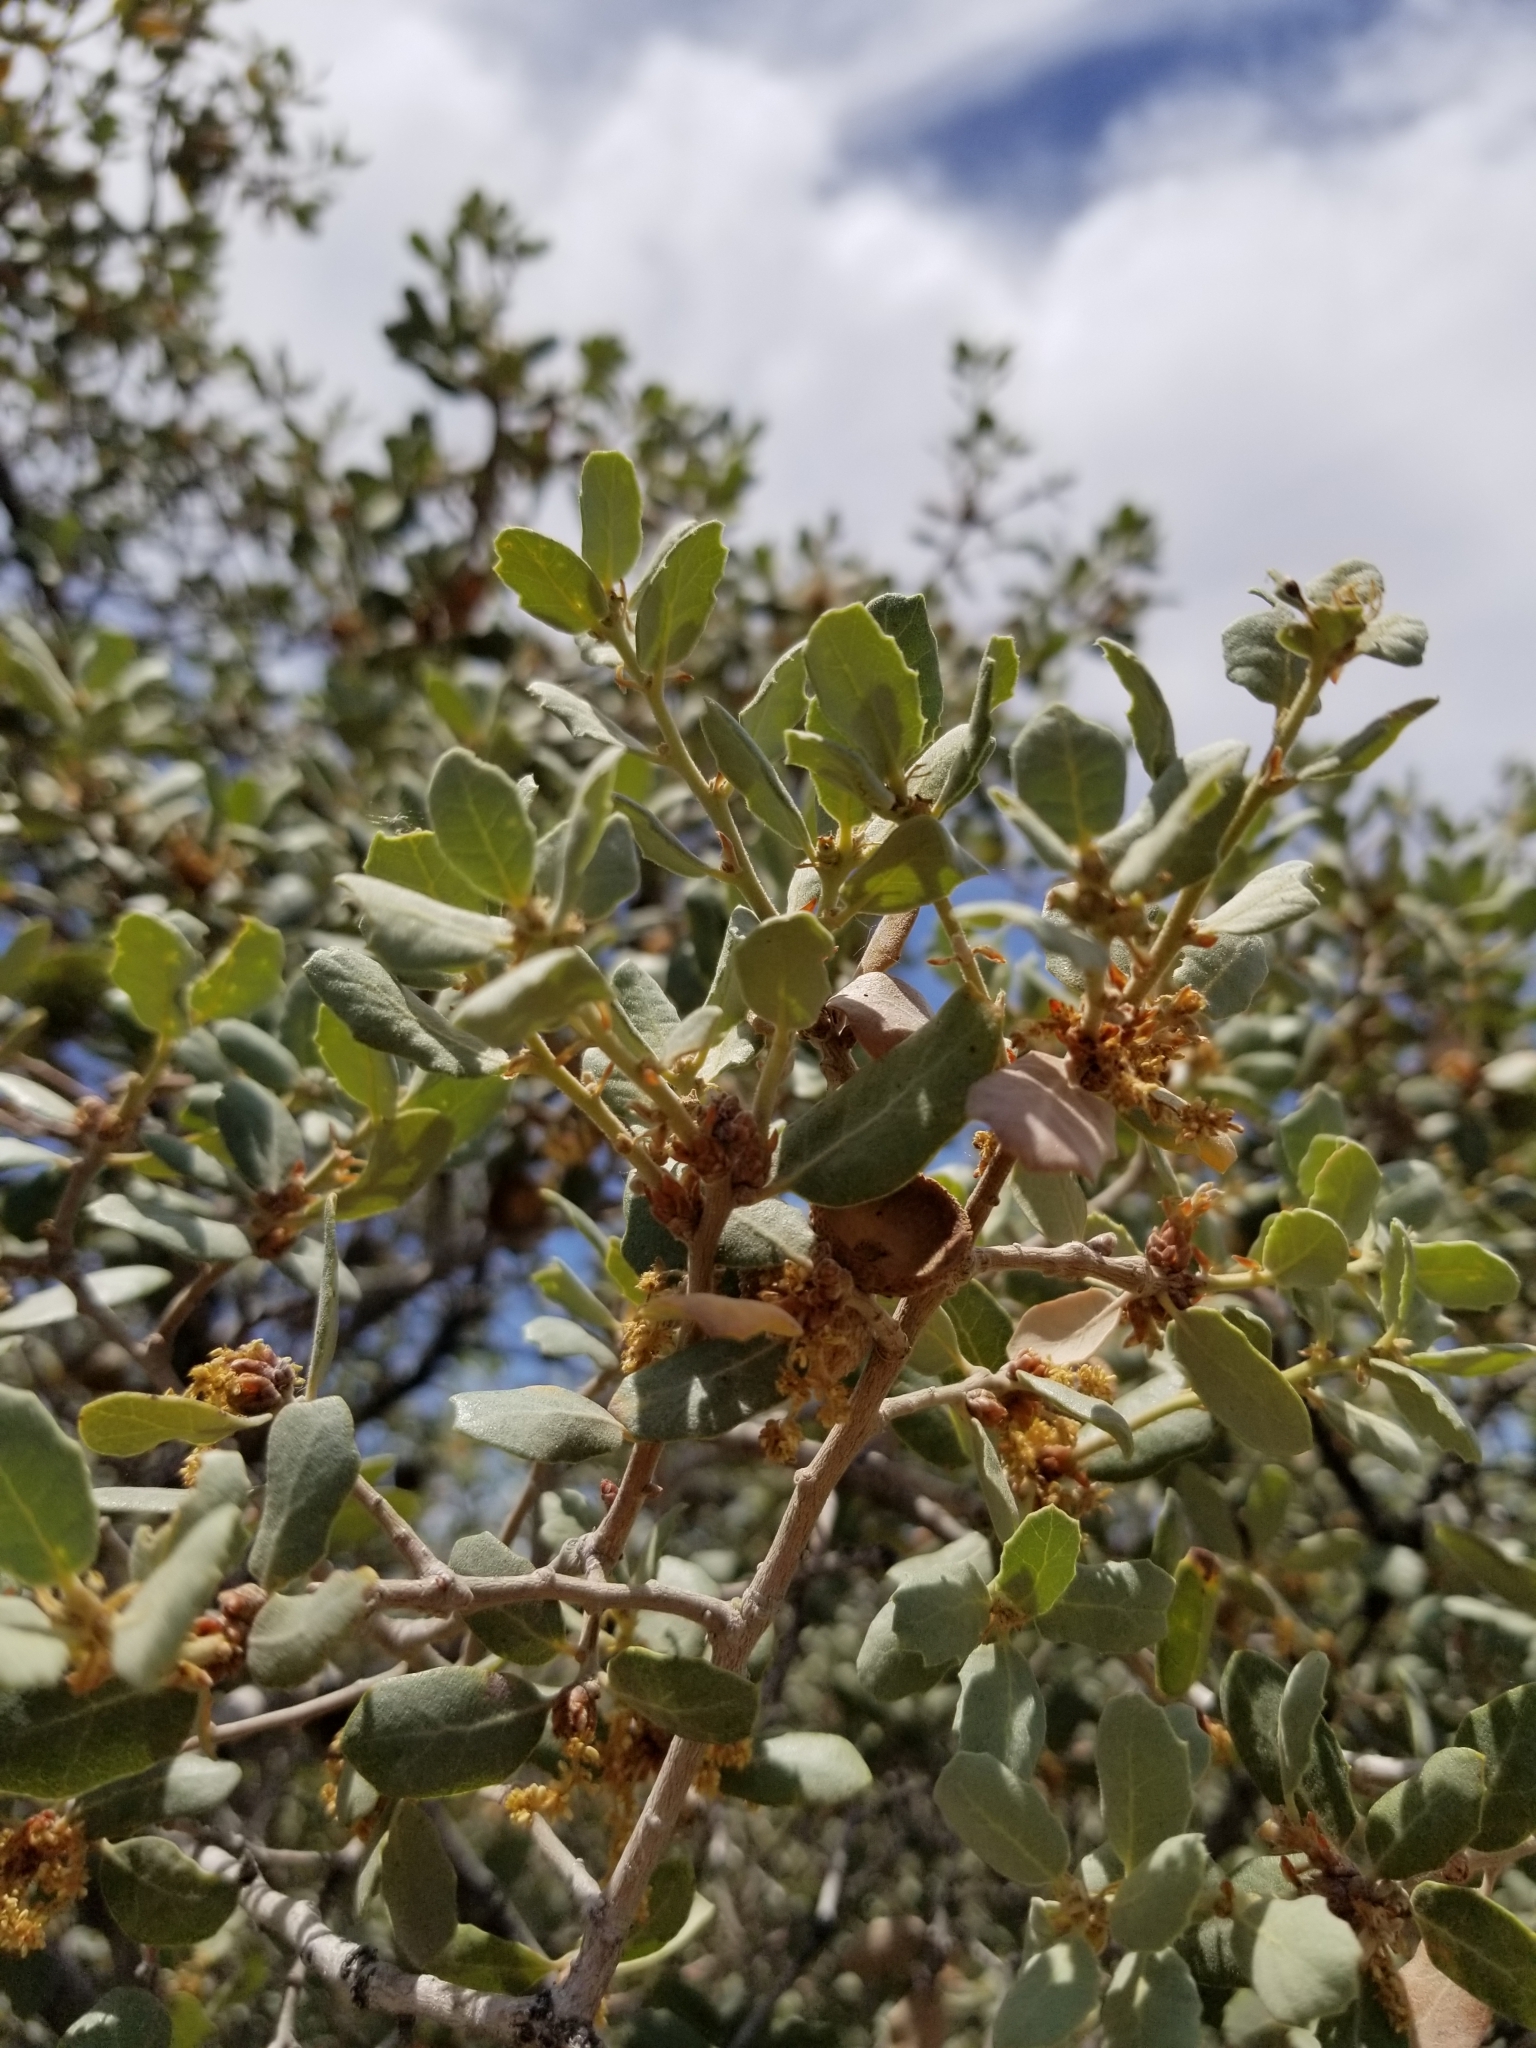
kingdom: Plantae
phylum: Tracheophyta
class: Magnoliopsida
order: Fagales
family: Fagaceae
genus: Quercus
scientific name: Quercus cornelius-mulleri
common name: Muller oak
